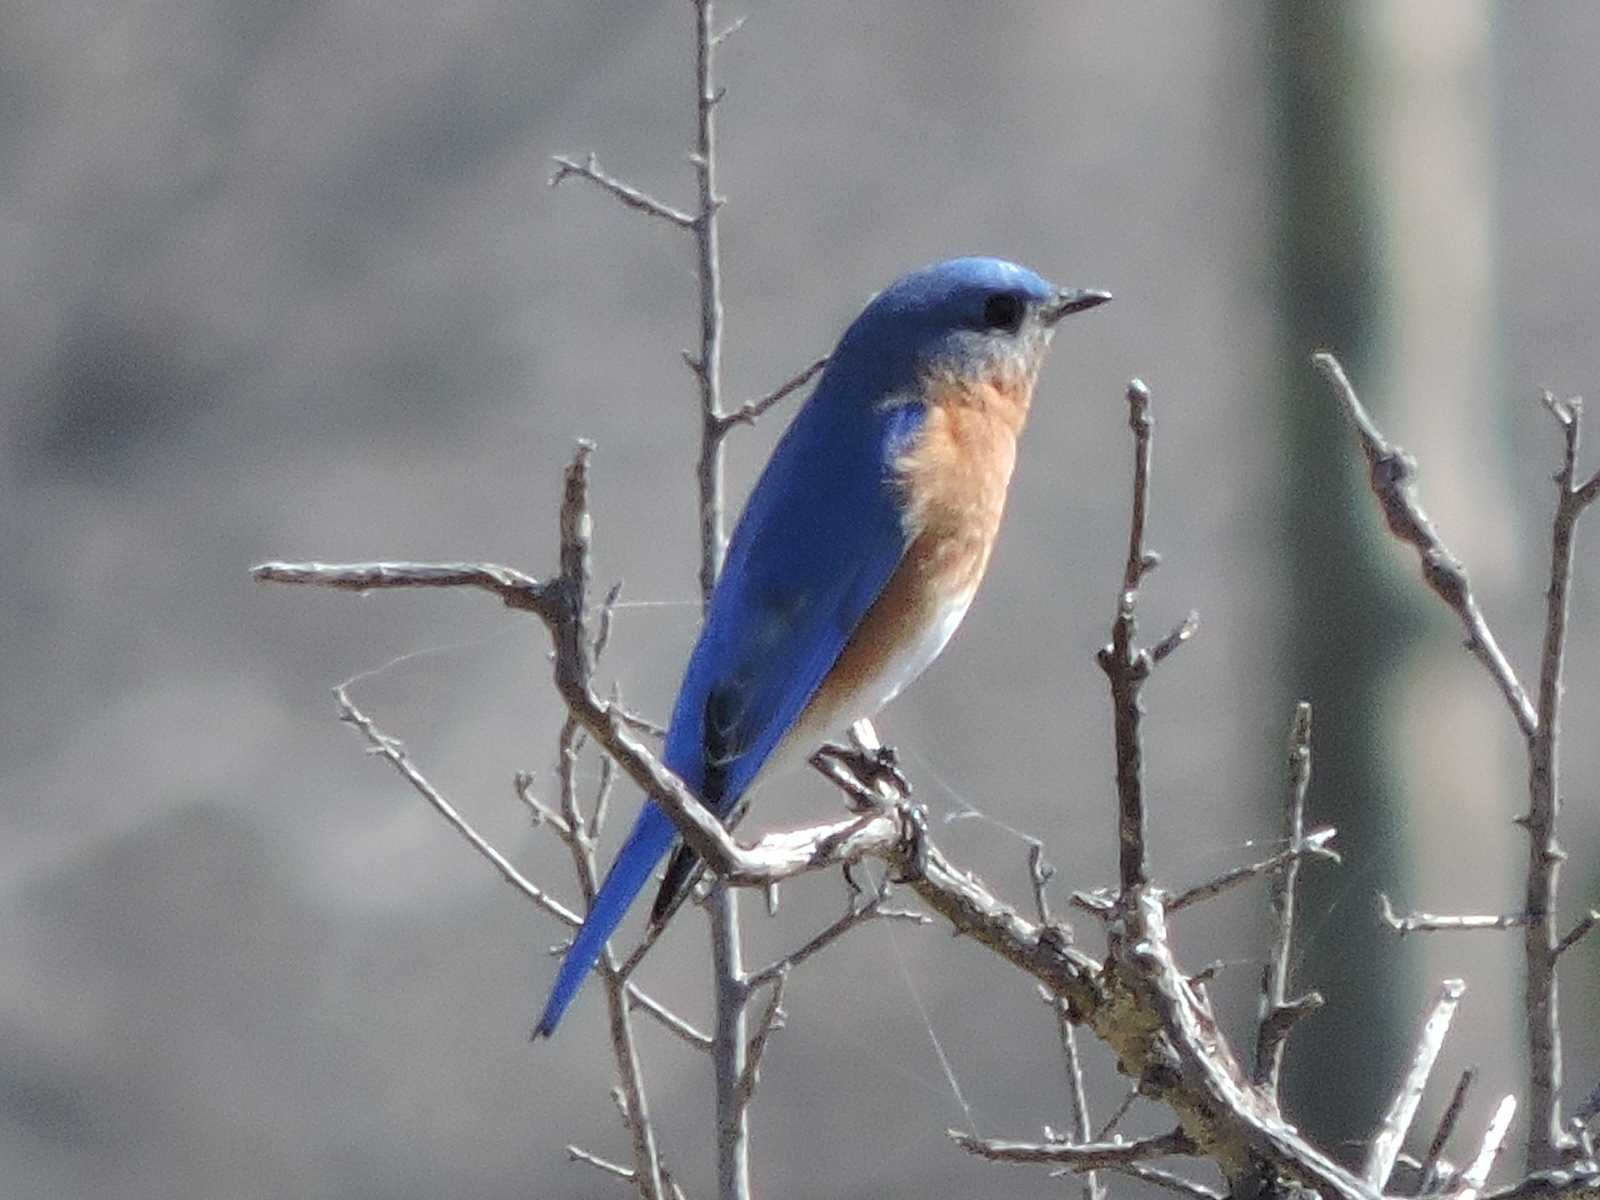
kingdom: Animalia
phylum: Chordata
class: Aves
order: Passeriformes
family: Turdidae
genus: Sialia
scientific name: Sialia sialis
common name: Eastern bluebird
